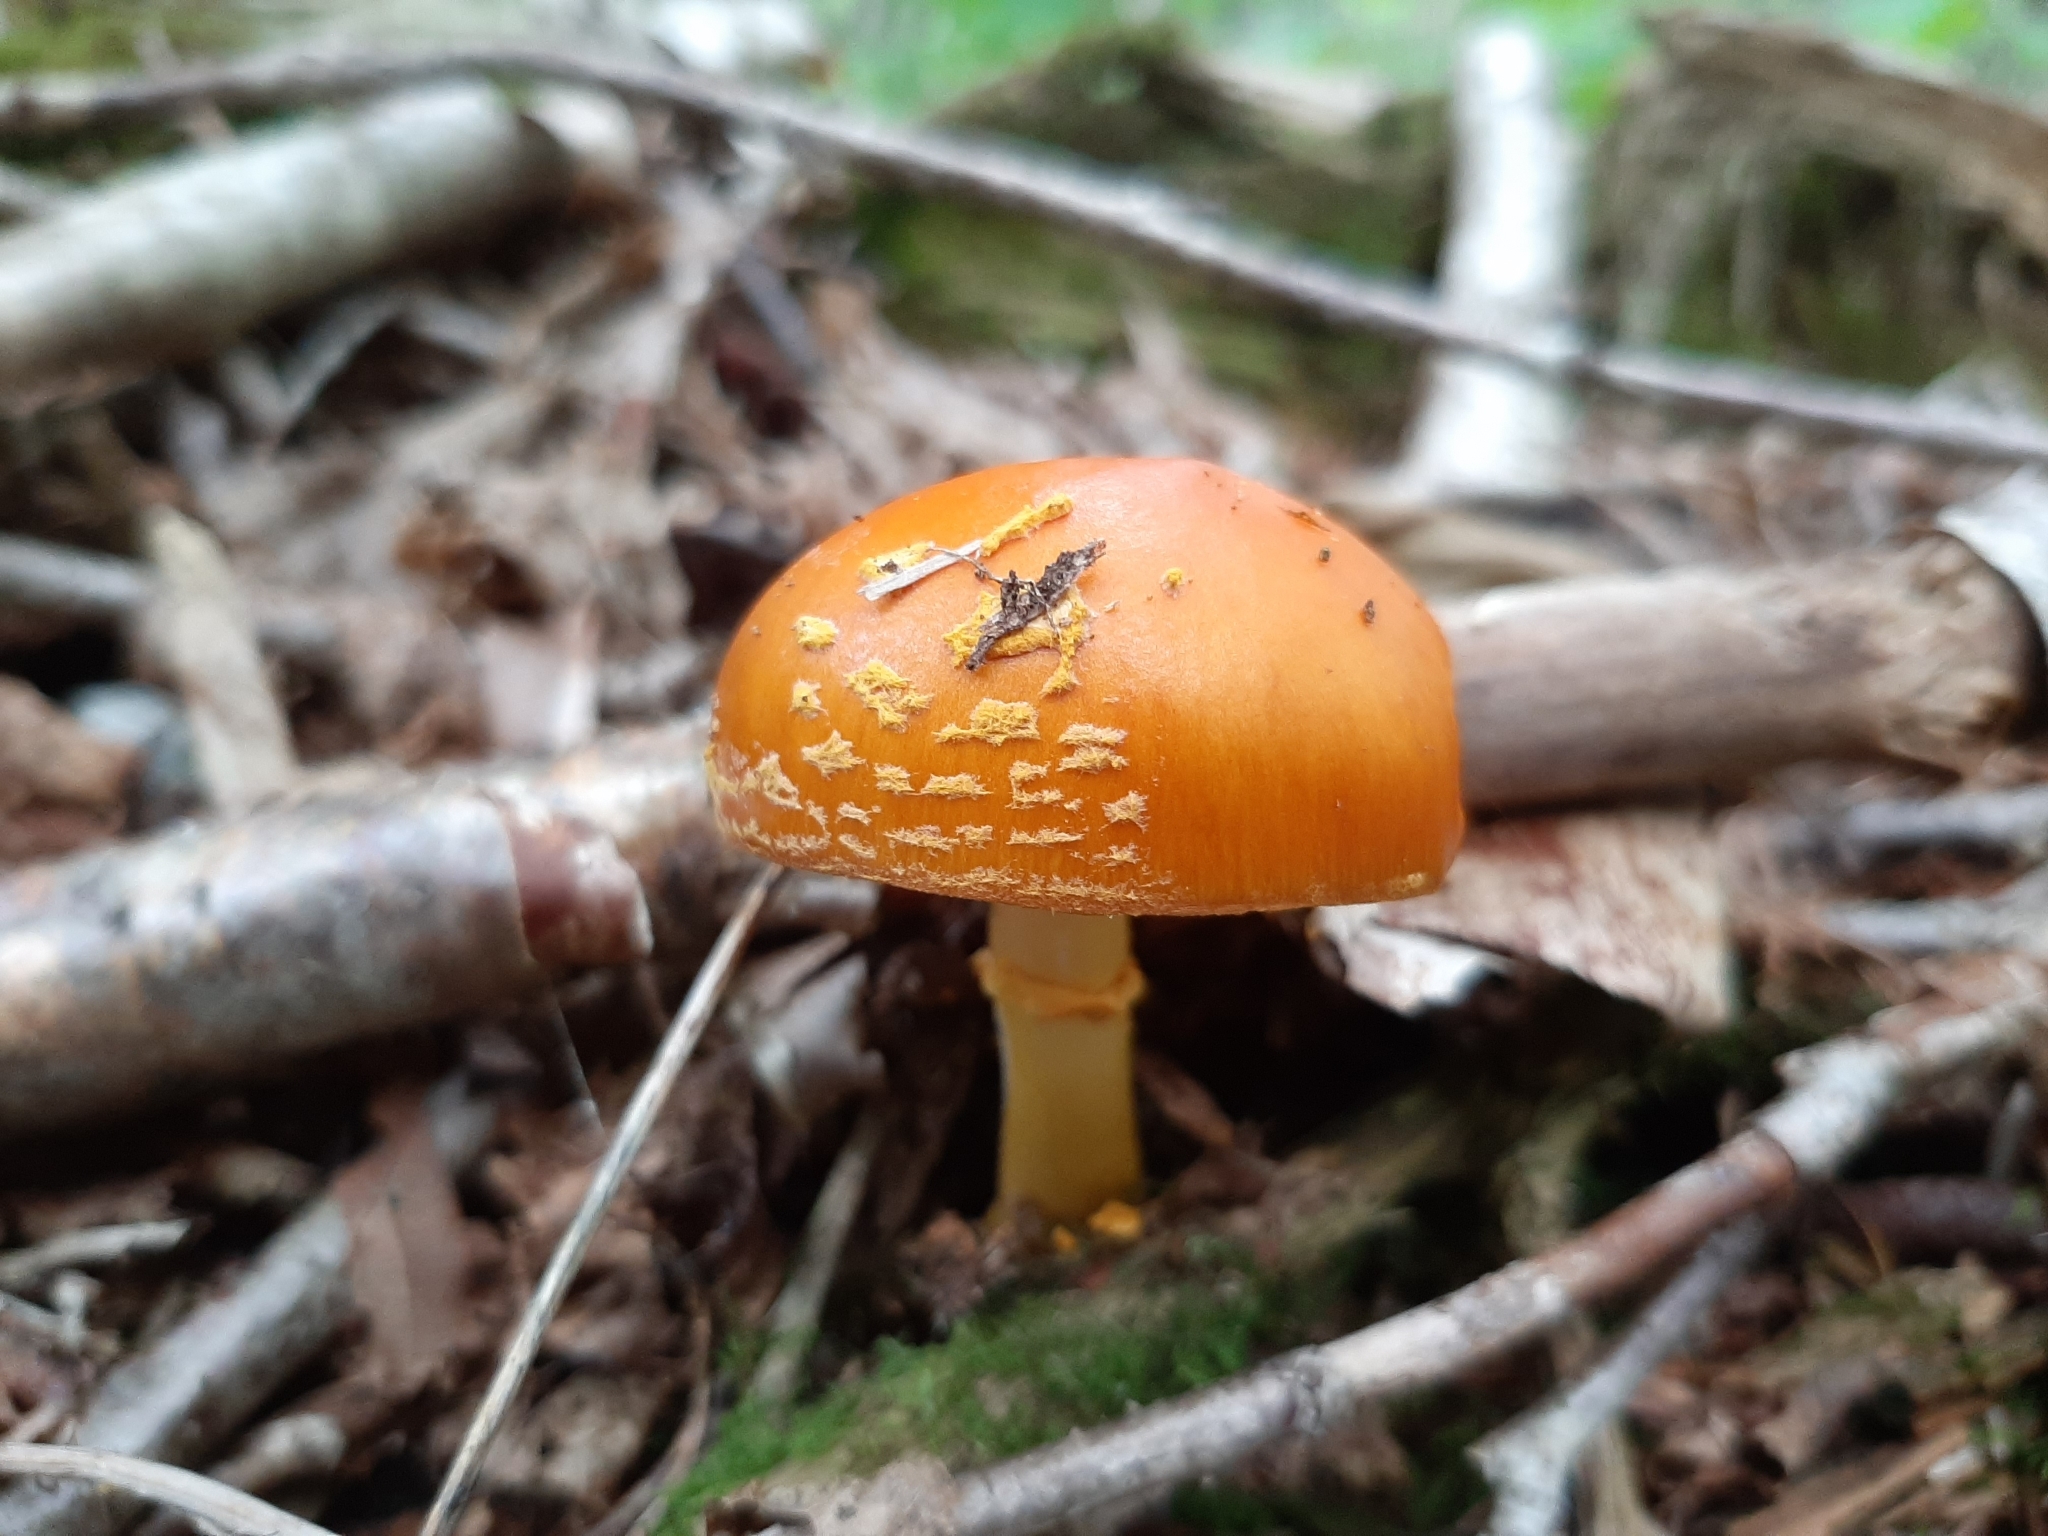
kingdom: Fungi
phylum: Basidiomycota
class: Agaricomycetes
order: Agaricales
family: Amanitaceae
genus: Amanita
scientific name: Amanita flavoconia
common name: Yellow patches
